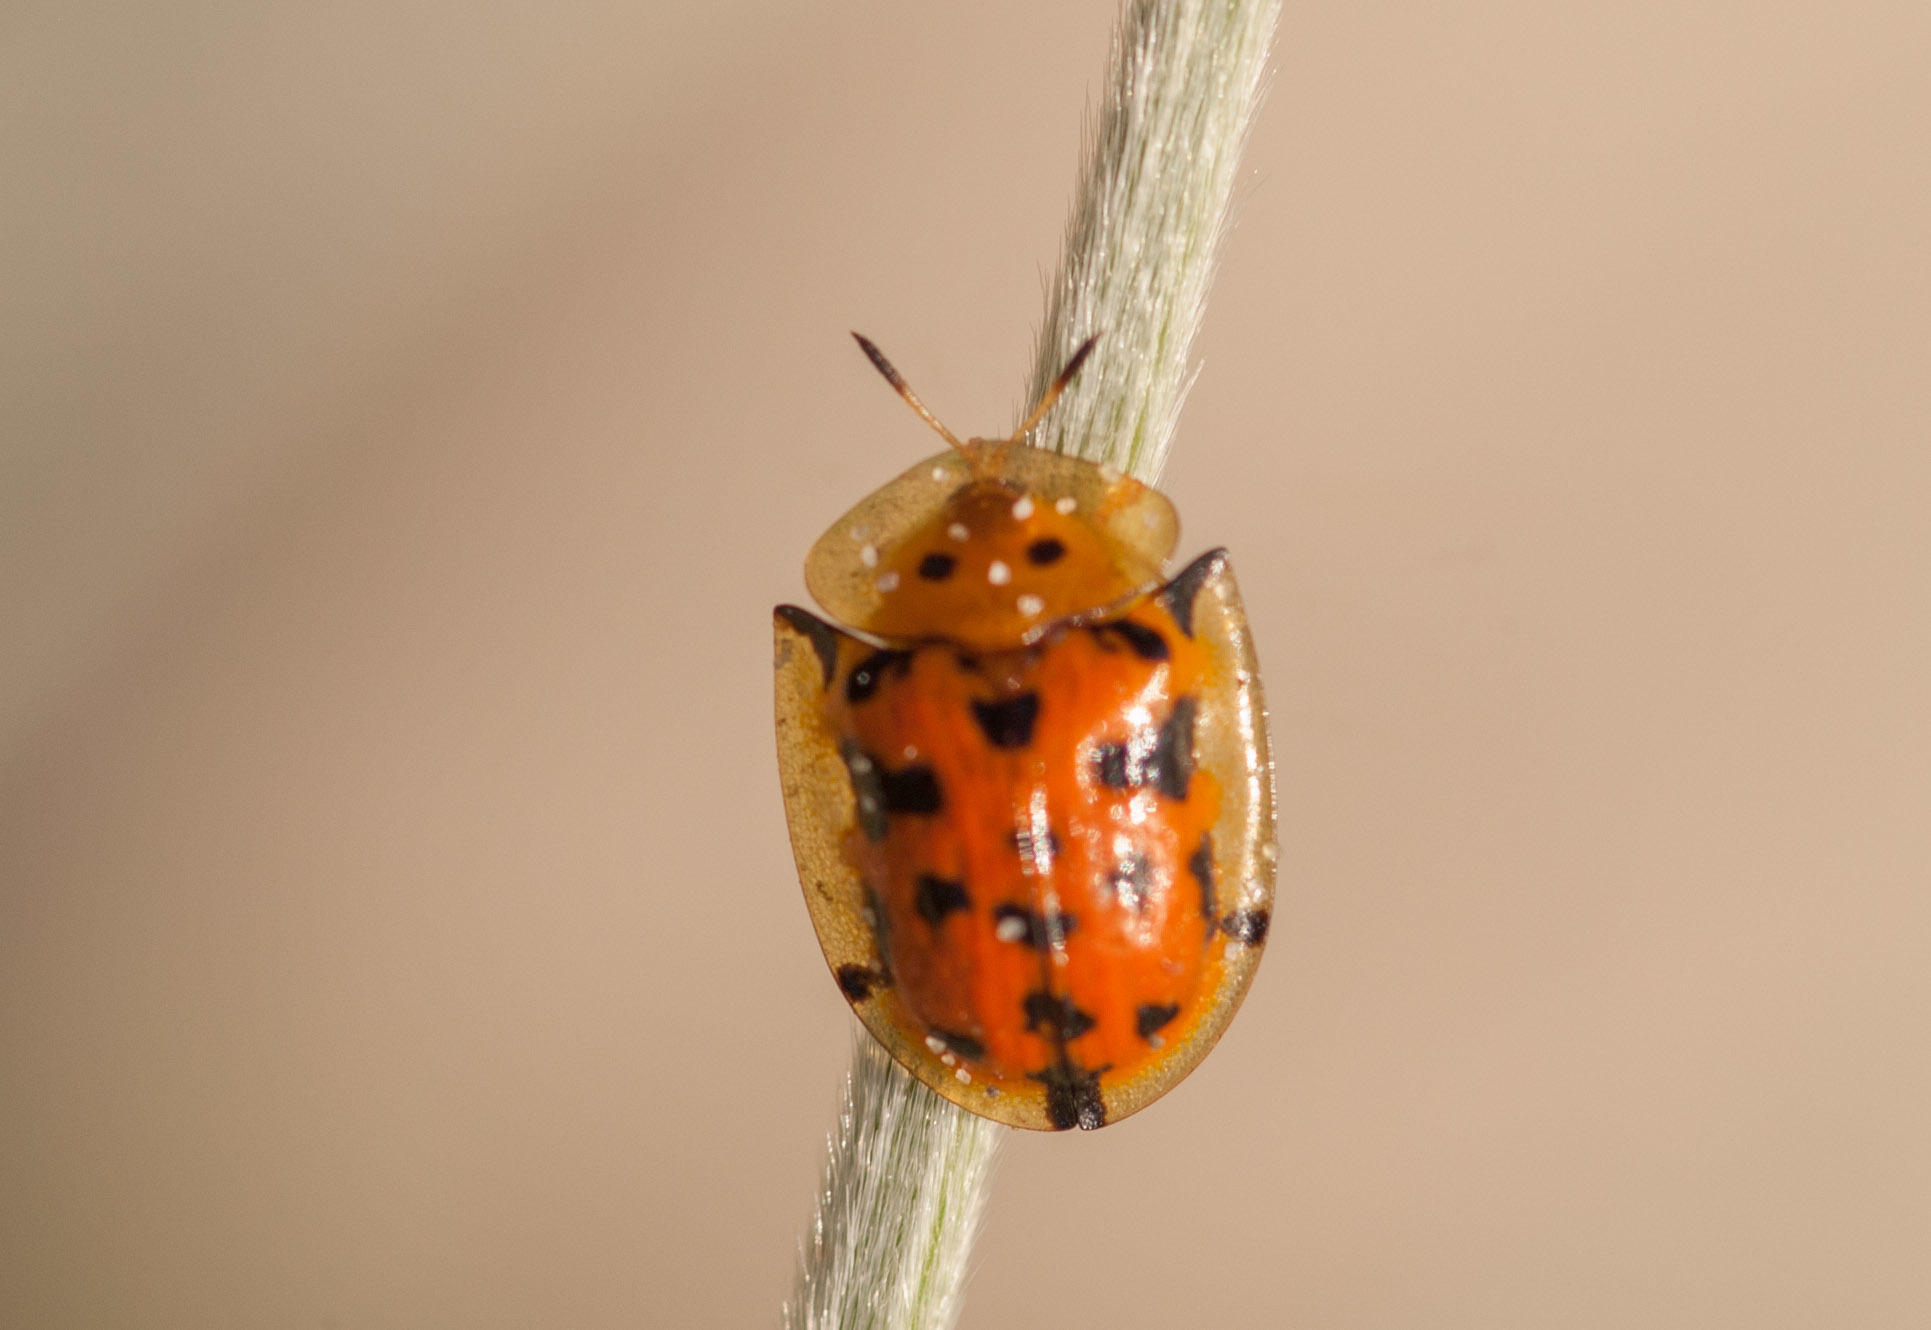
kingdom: Animalia
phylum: Arthropoda
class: Insecta
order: Coleoptera
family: Chrysomelidae
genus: Aspidimorpha
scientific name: Aspidimorpha deusta
